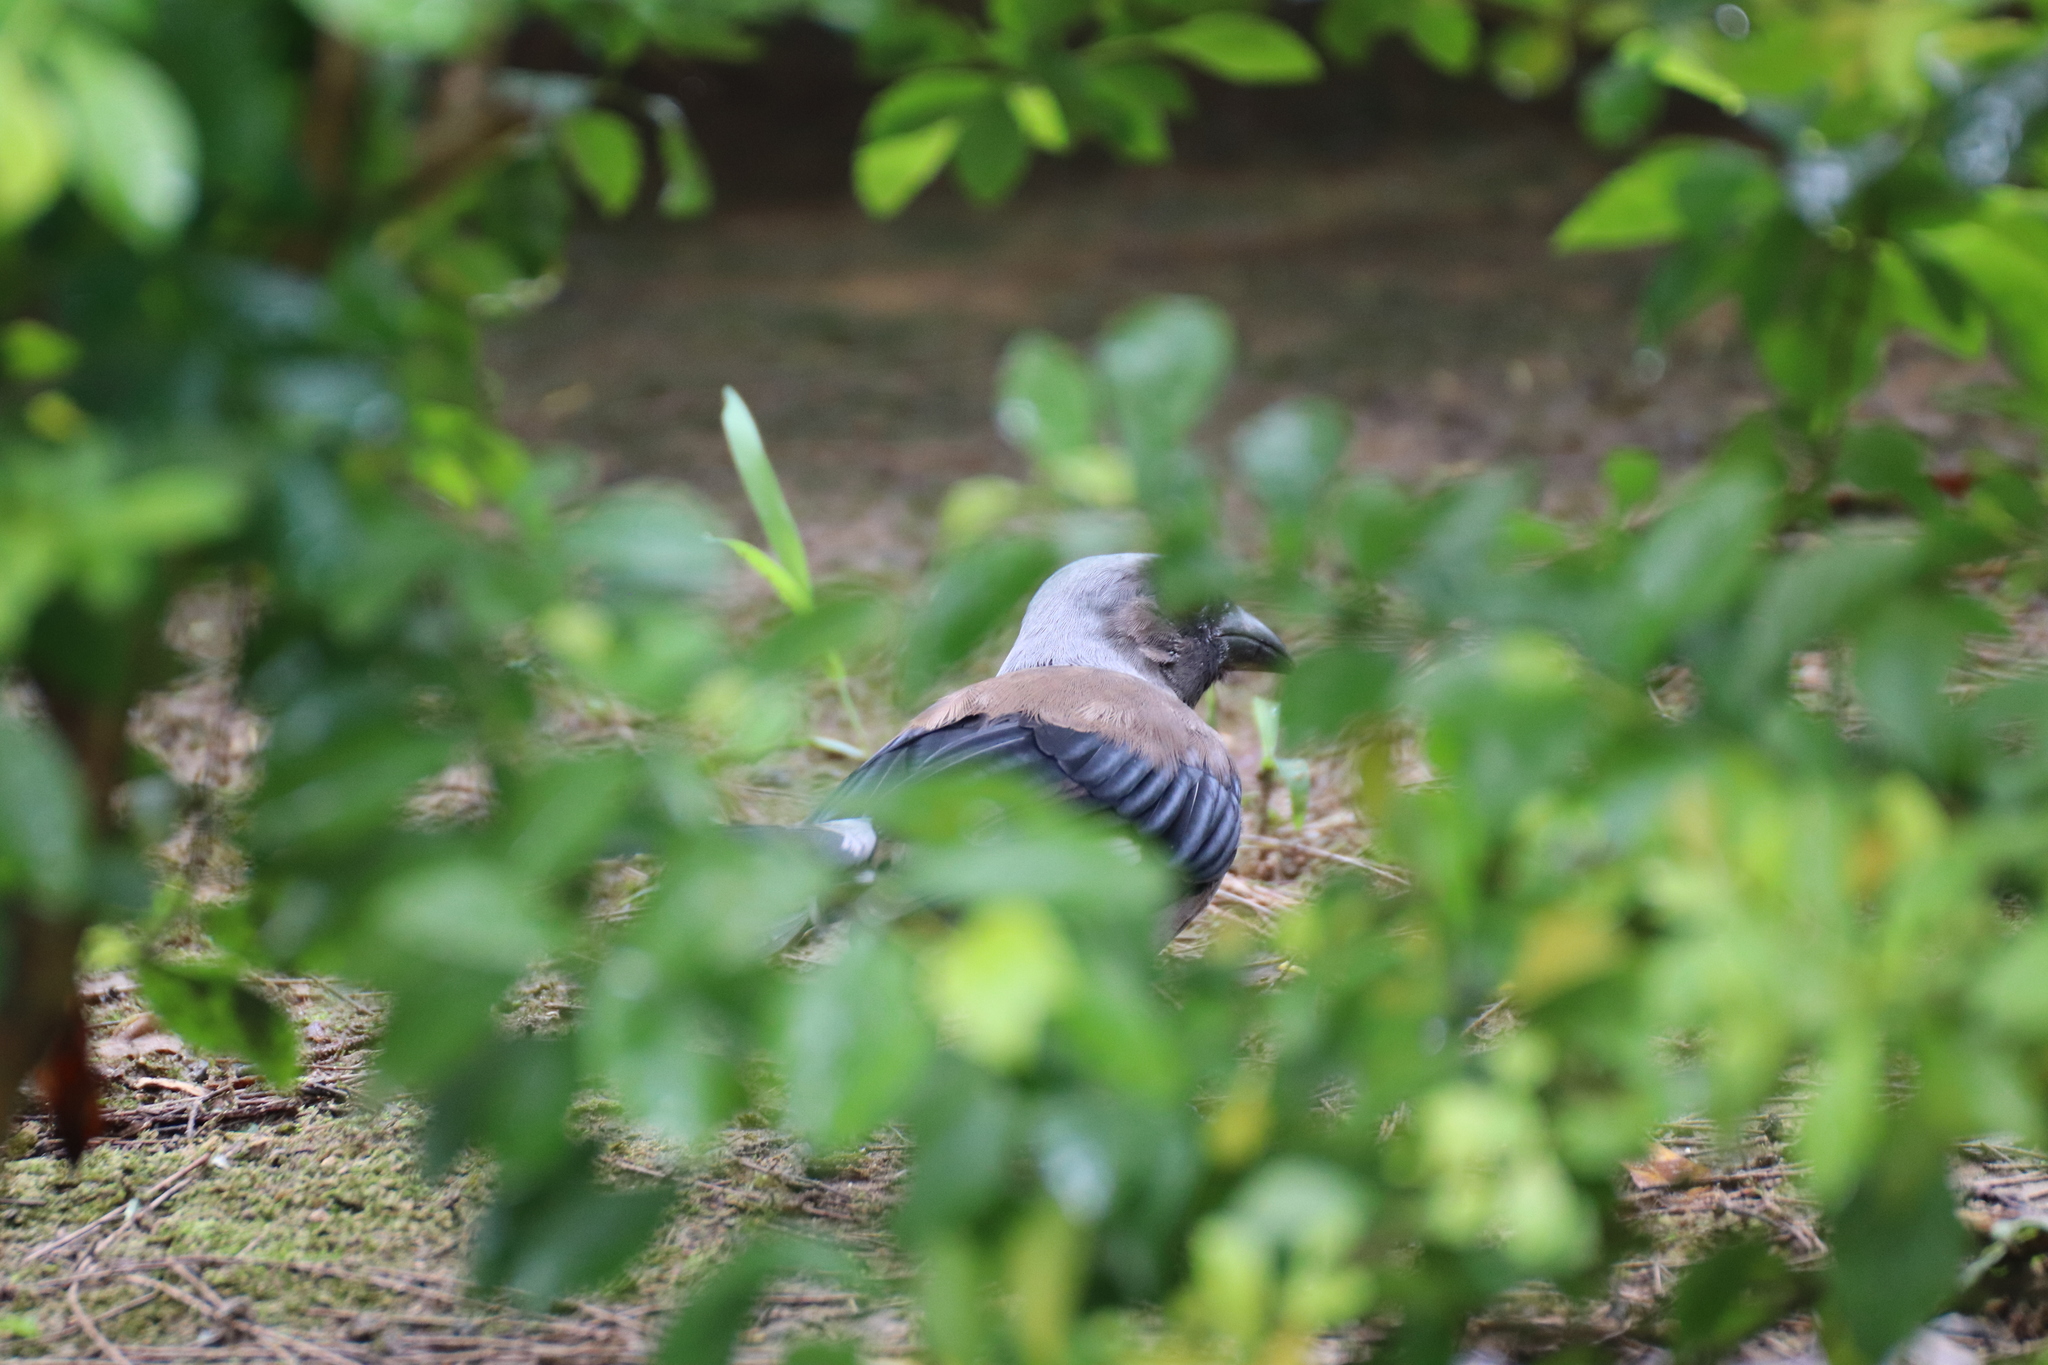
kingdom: Animalia
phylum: Chordata
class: Aves
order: Passeriformes
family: Corvidae
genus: Dendrocitta
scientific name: Dendrocitta formosae
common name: Grey treepie
